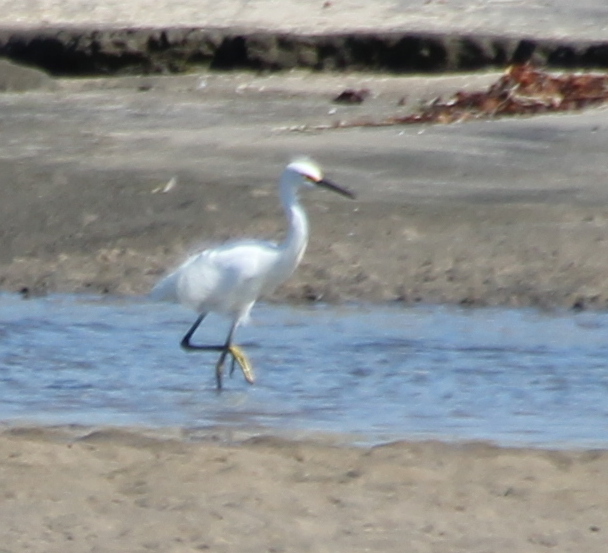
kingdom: Animalia
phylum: Chordata
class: Aves
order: Pelecaniformes
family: Ardeidae
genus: Egretta
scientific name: Egretta thula
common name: Snowy egret
